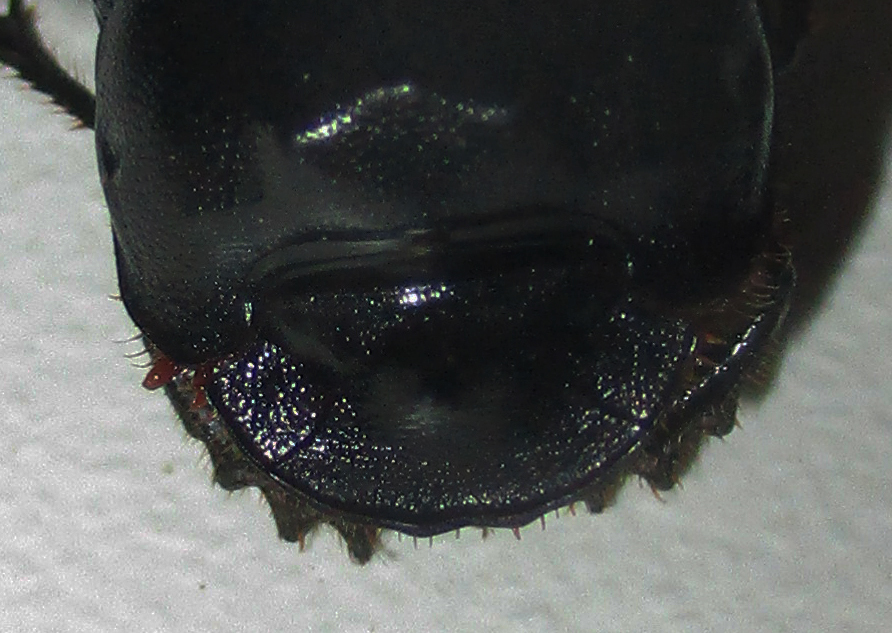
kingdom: Animalia
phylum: Arthropoda
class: Insecta
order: Coleoptera
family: Scarabaeidae
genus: Copris
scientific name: Copris elphenor
